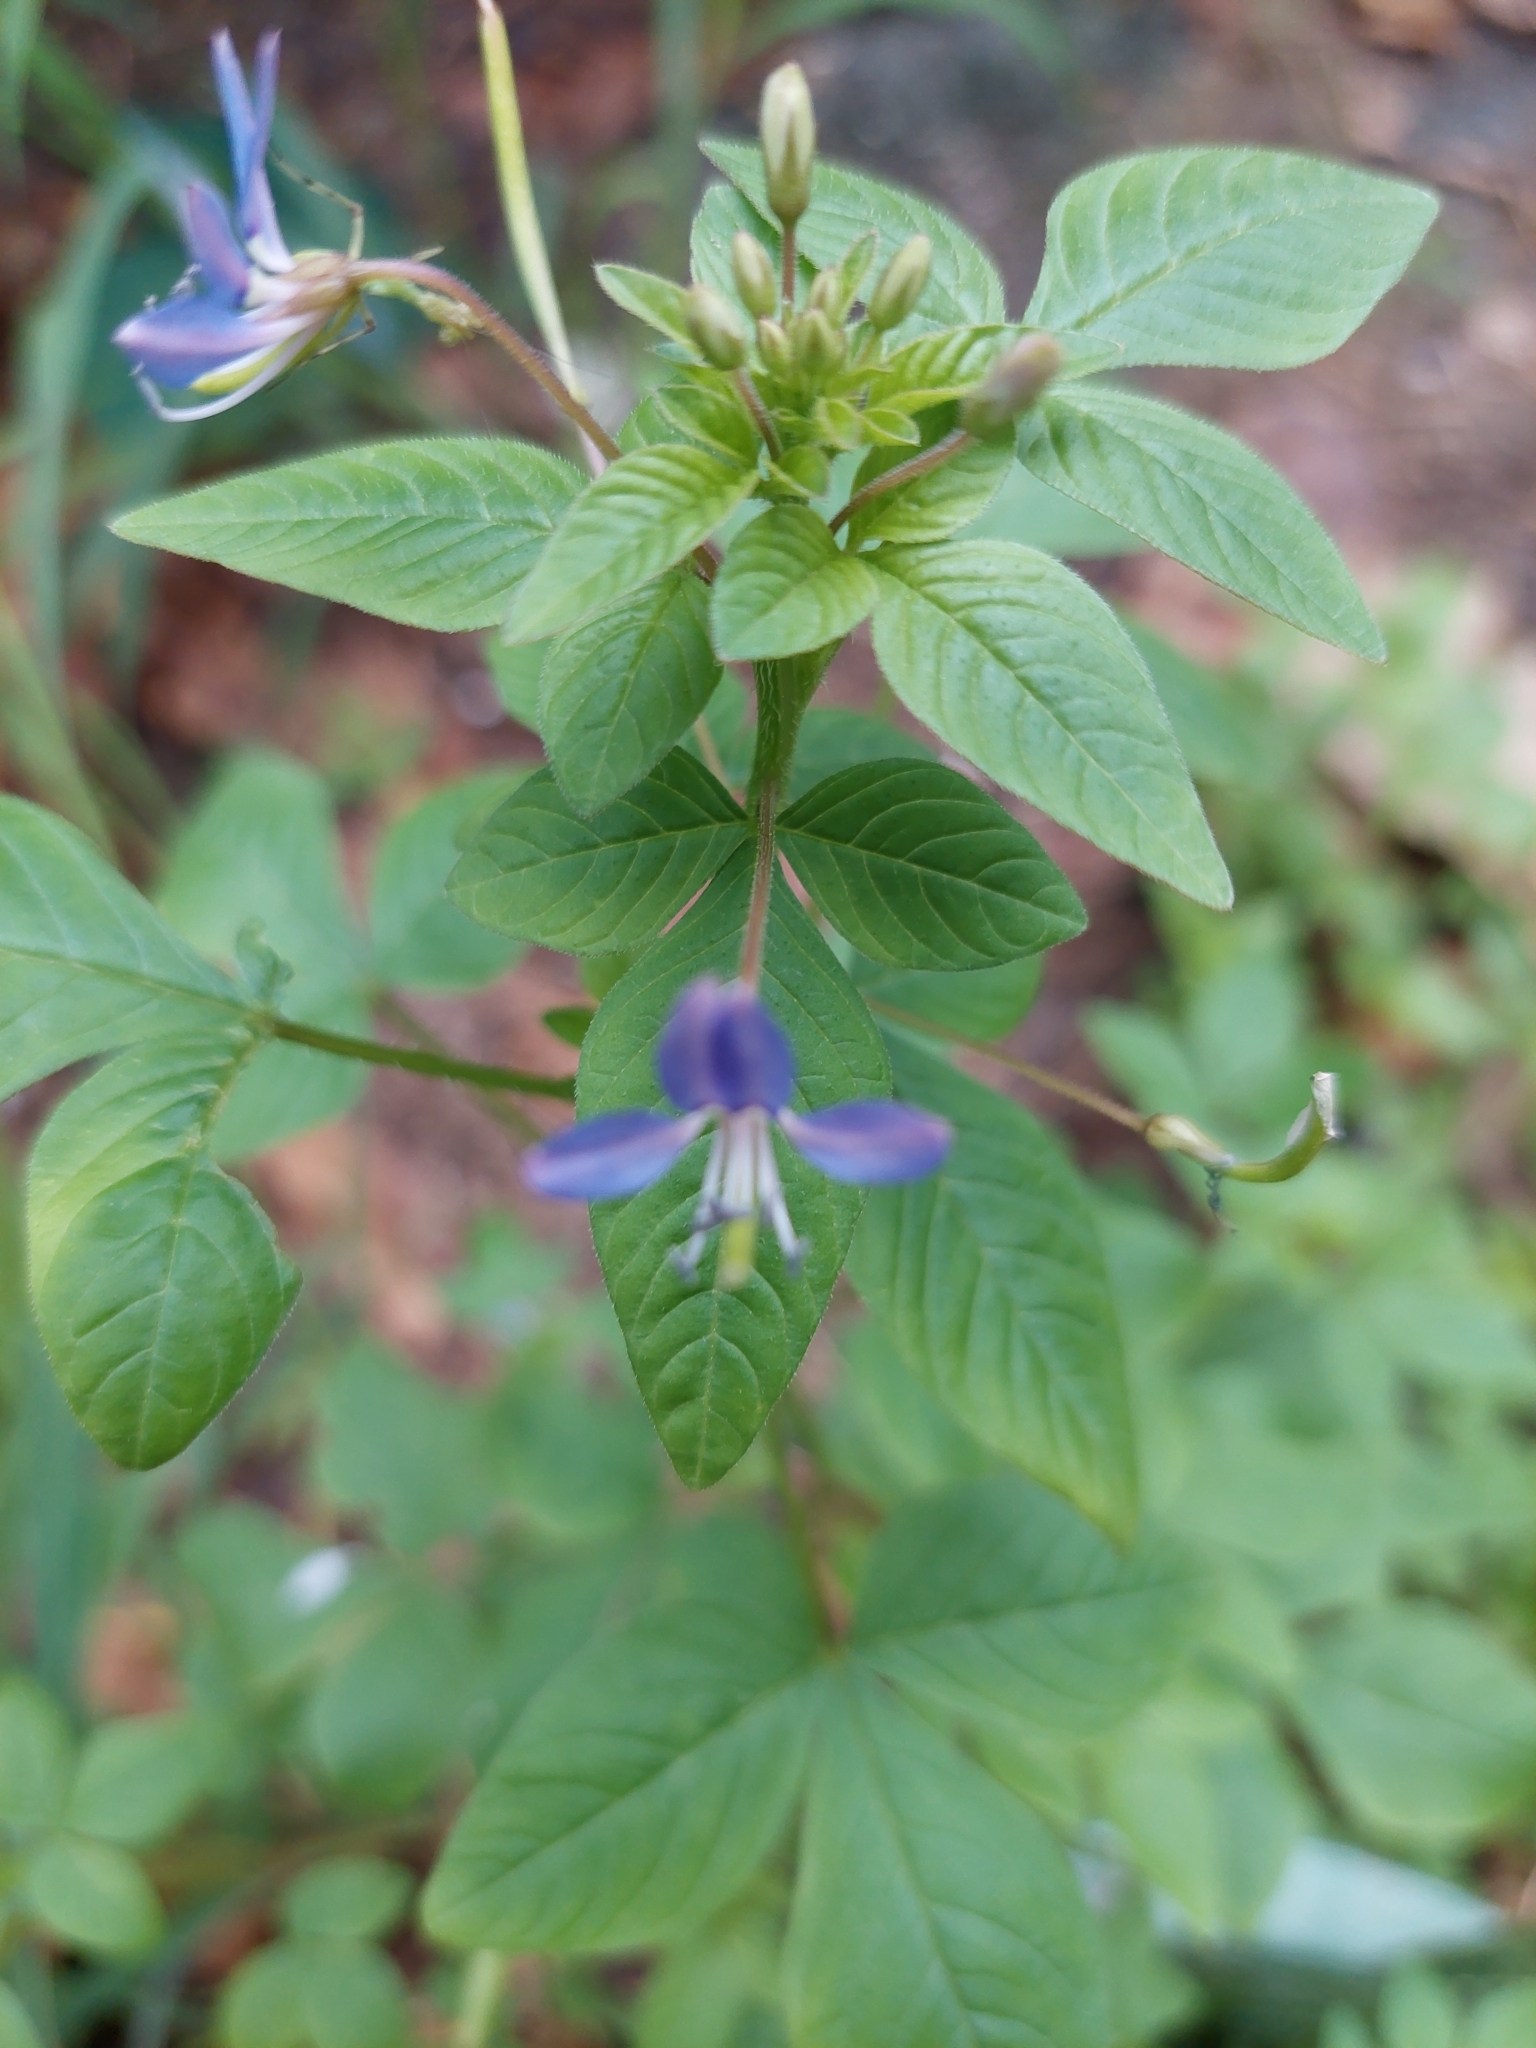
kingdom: Plantae
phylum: Tracheophyta
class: Magnoliopsida
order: Brassicales
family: Cleomaceae
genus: Sieruela
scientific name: Sieruela rutidosperma
